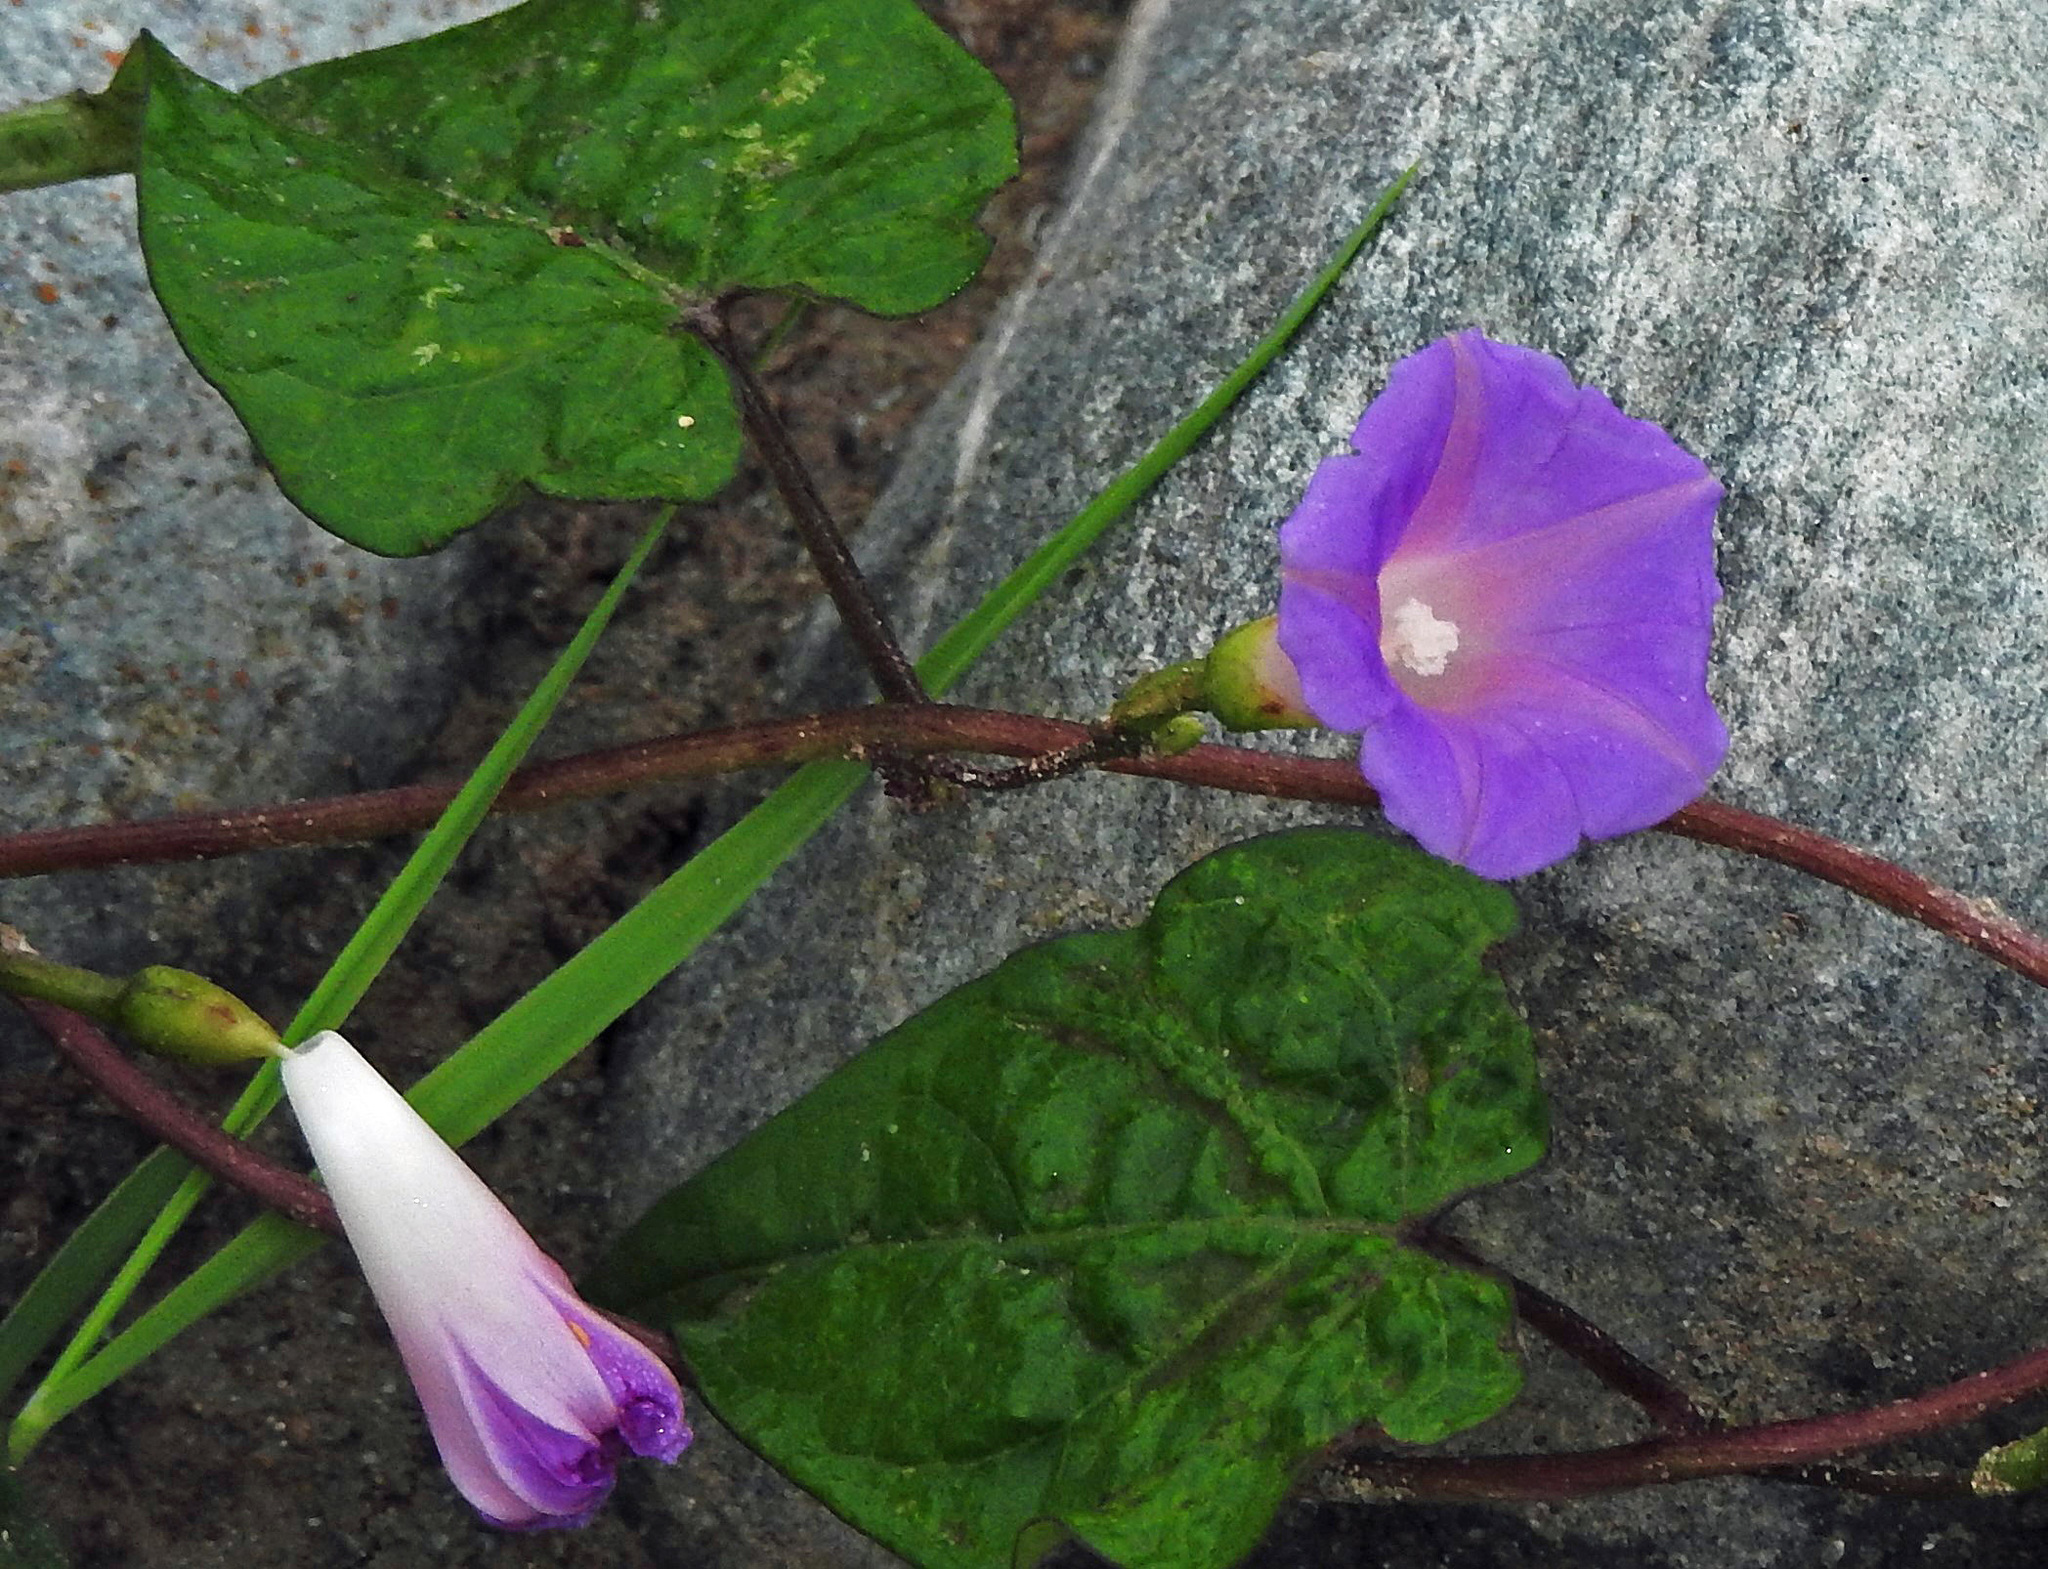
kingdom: Plantae
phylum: Tracheophyta
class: Magnoliopsida
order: Solanales
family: Convolvulaceae
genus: Ipomoea
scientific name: Ipomoea purpurea
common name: Common morning-glory
